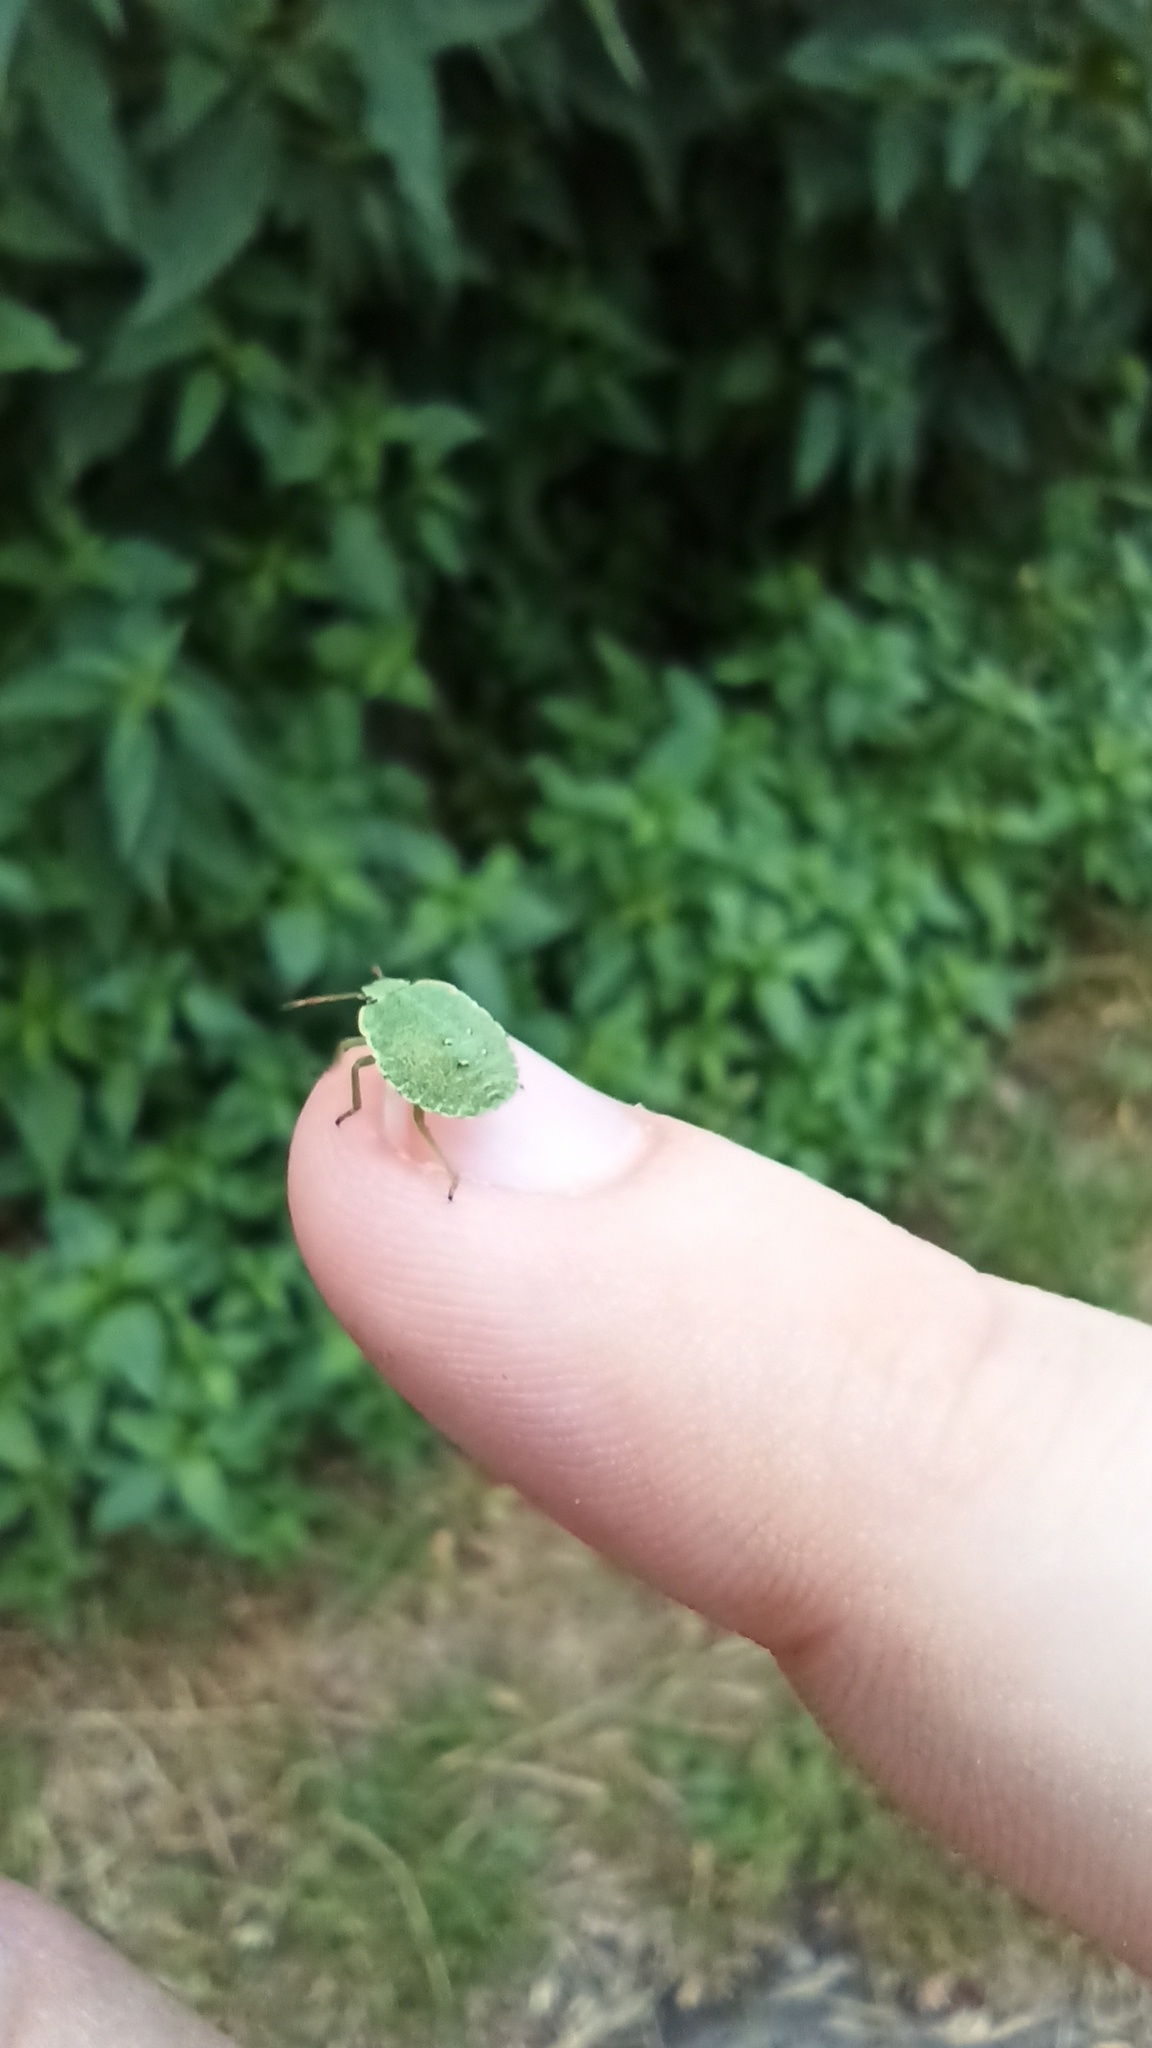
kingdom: Animalia
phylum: Arthropoda
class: Insecta
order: Hemiptera
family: Pentatomidae
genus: Palomena
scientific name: Palomena prasina
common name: Green shieldbug
